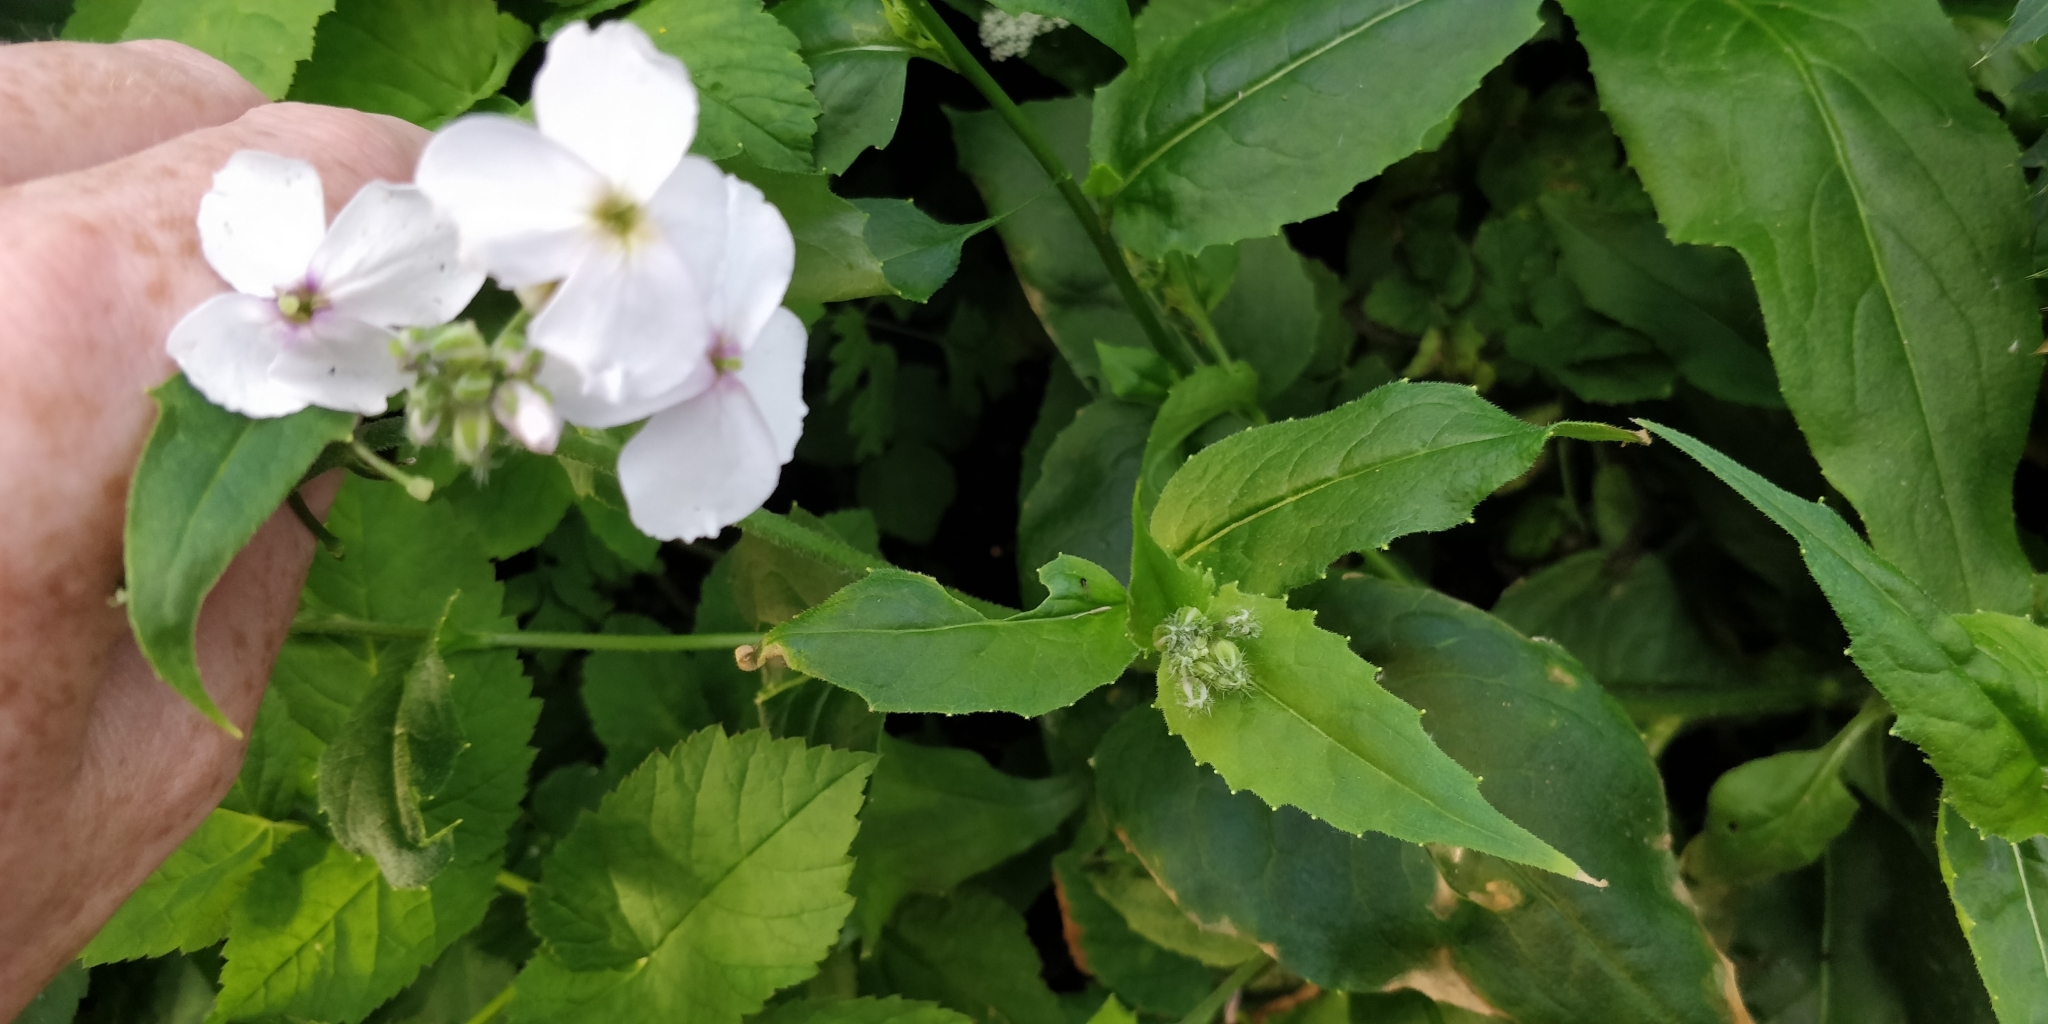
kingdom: Plantae
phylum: Tracheophyta
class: Magnoliopsida
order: Brassicales
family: Brassicaceae
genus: Hesperis
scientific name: Hesperis matronalis
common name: Dame's-violet
